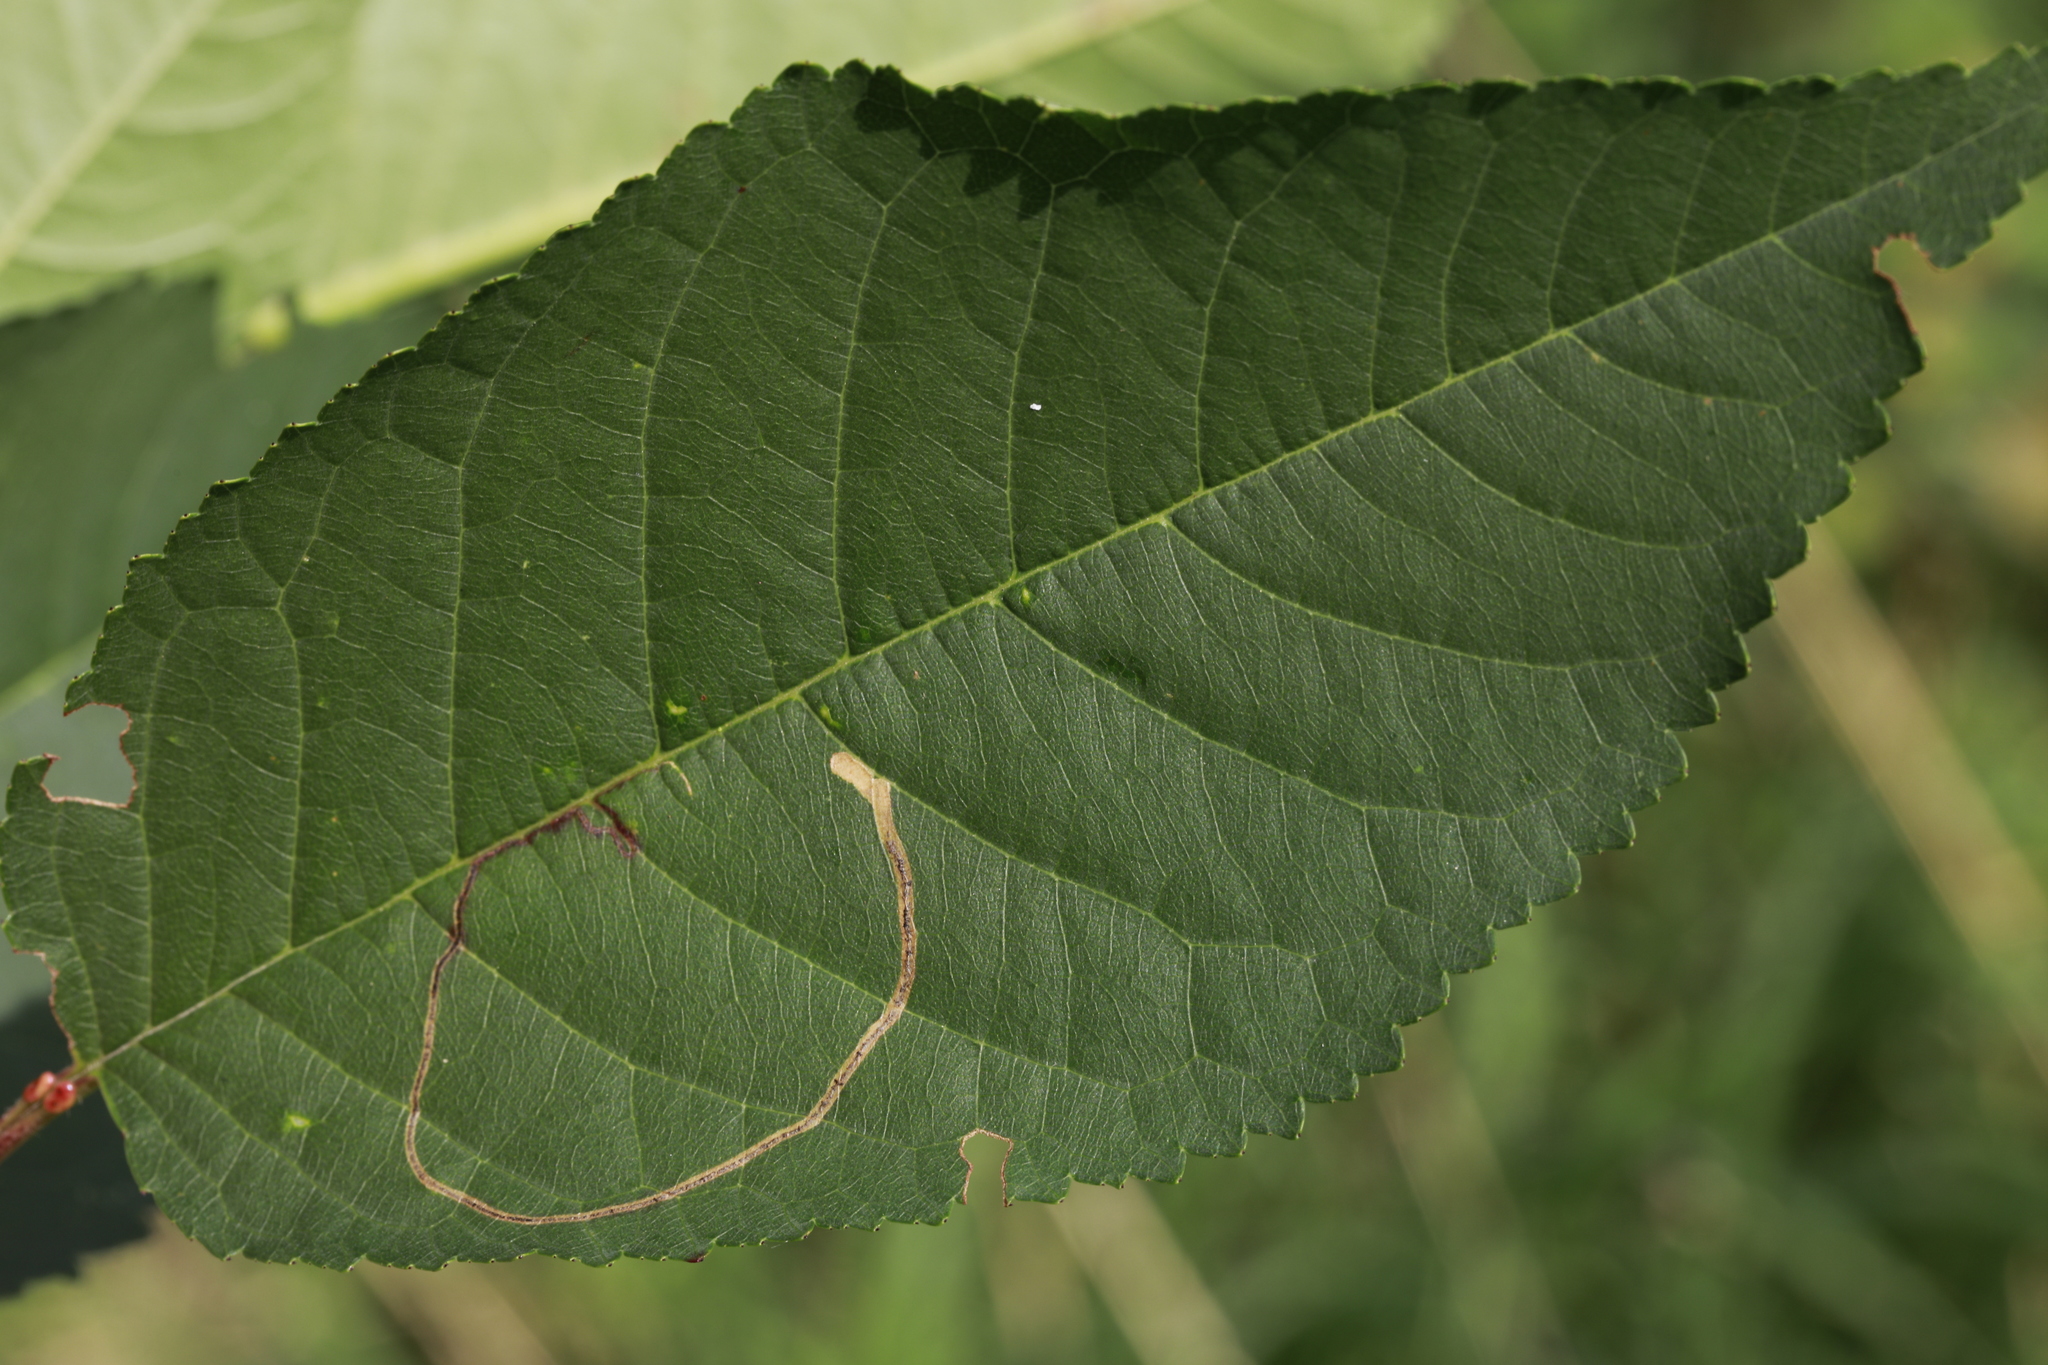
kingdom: Animalia
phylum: Arthropoda
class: Insecta
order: Lepidoptera
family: Lyonetiidae
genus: Lyonetia
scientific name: Lyonetia clerkella
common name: Apple leaf miner
